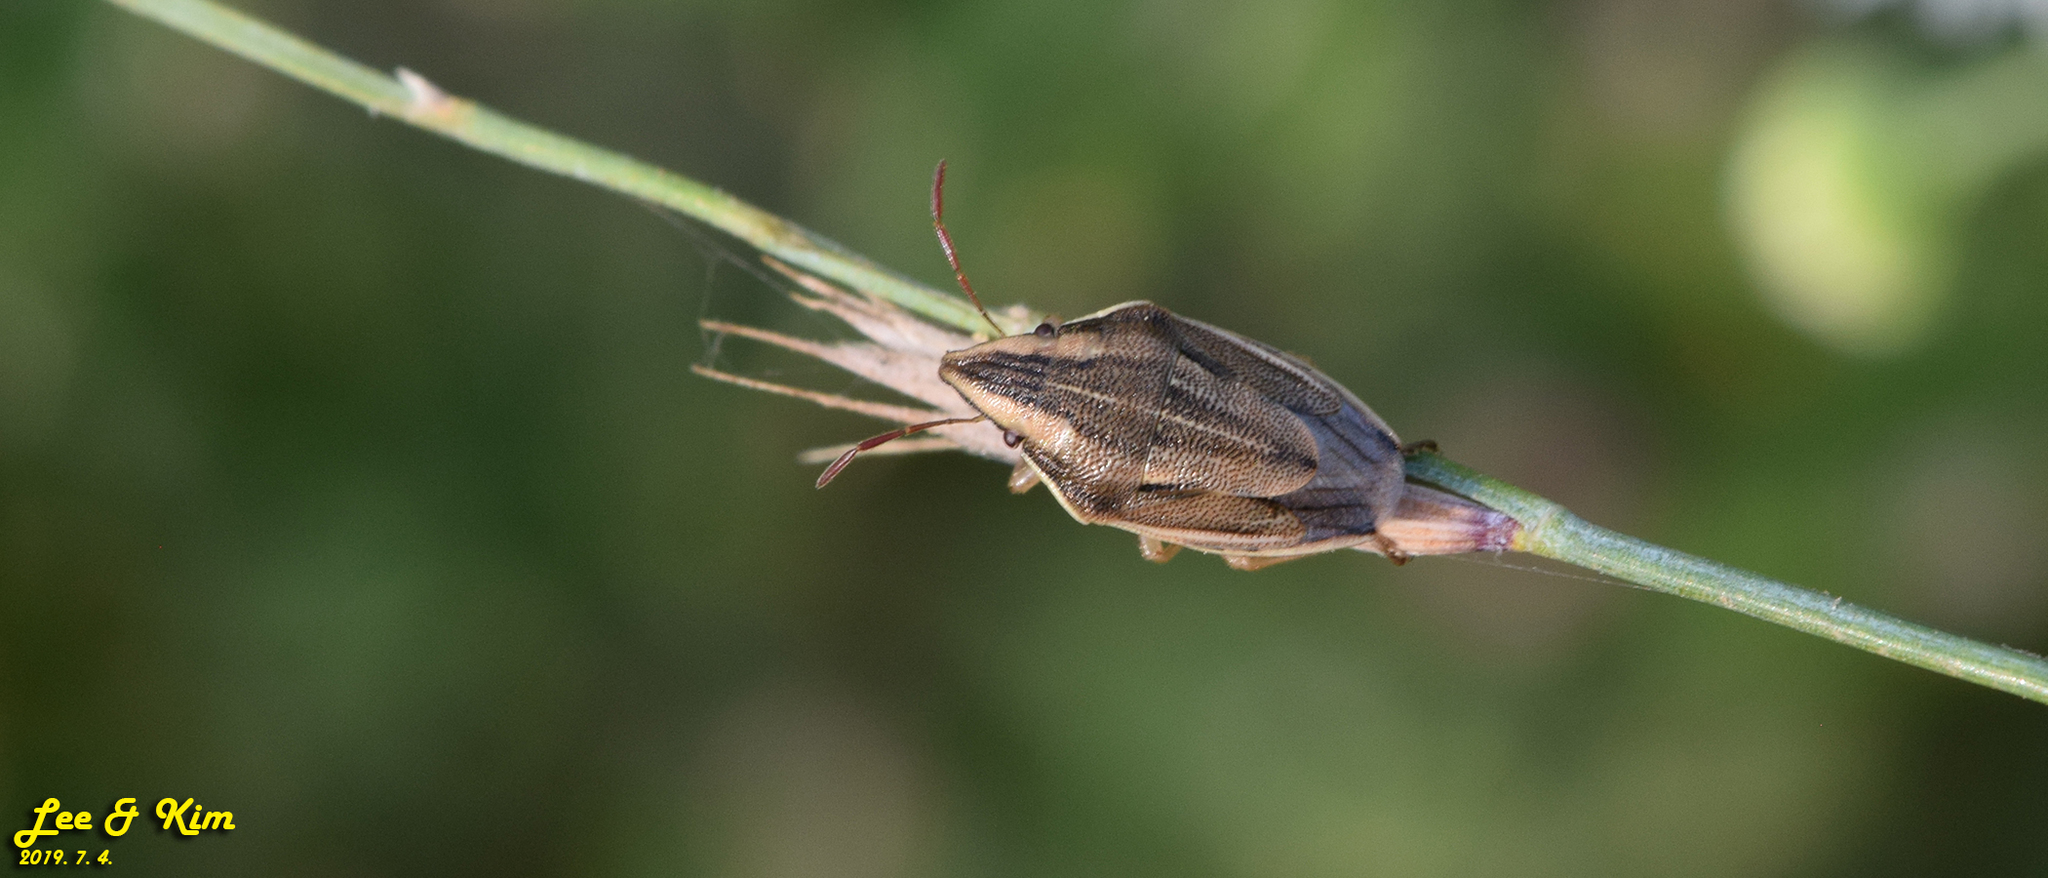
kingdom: Animalia
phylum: Arthropoda
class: Insecta
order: Hemiptera
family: Pentatomidae
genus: Aelia
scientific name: Aelia
